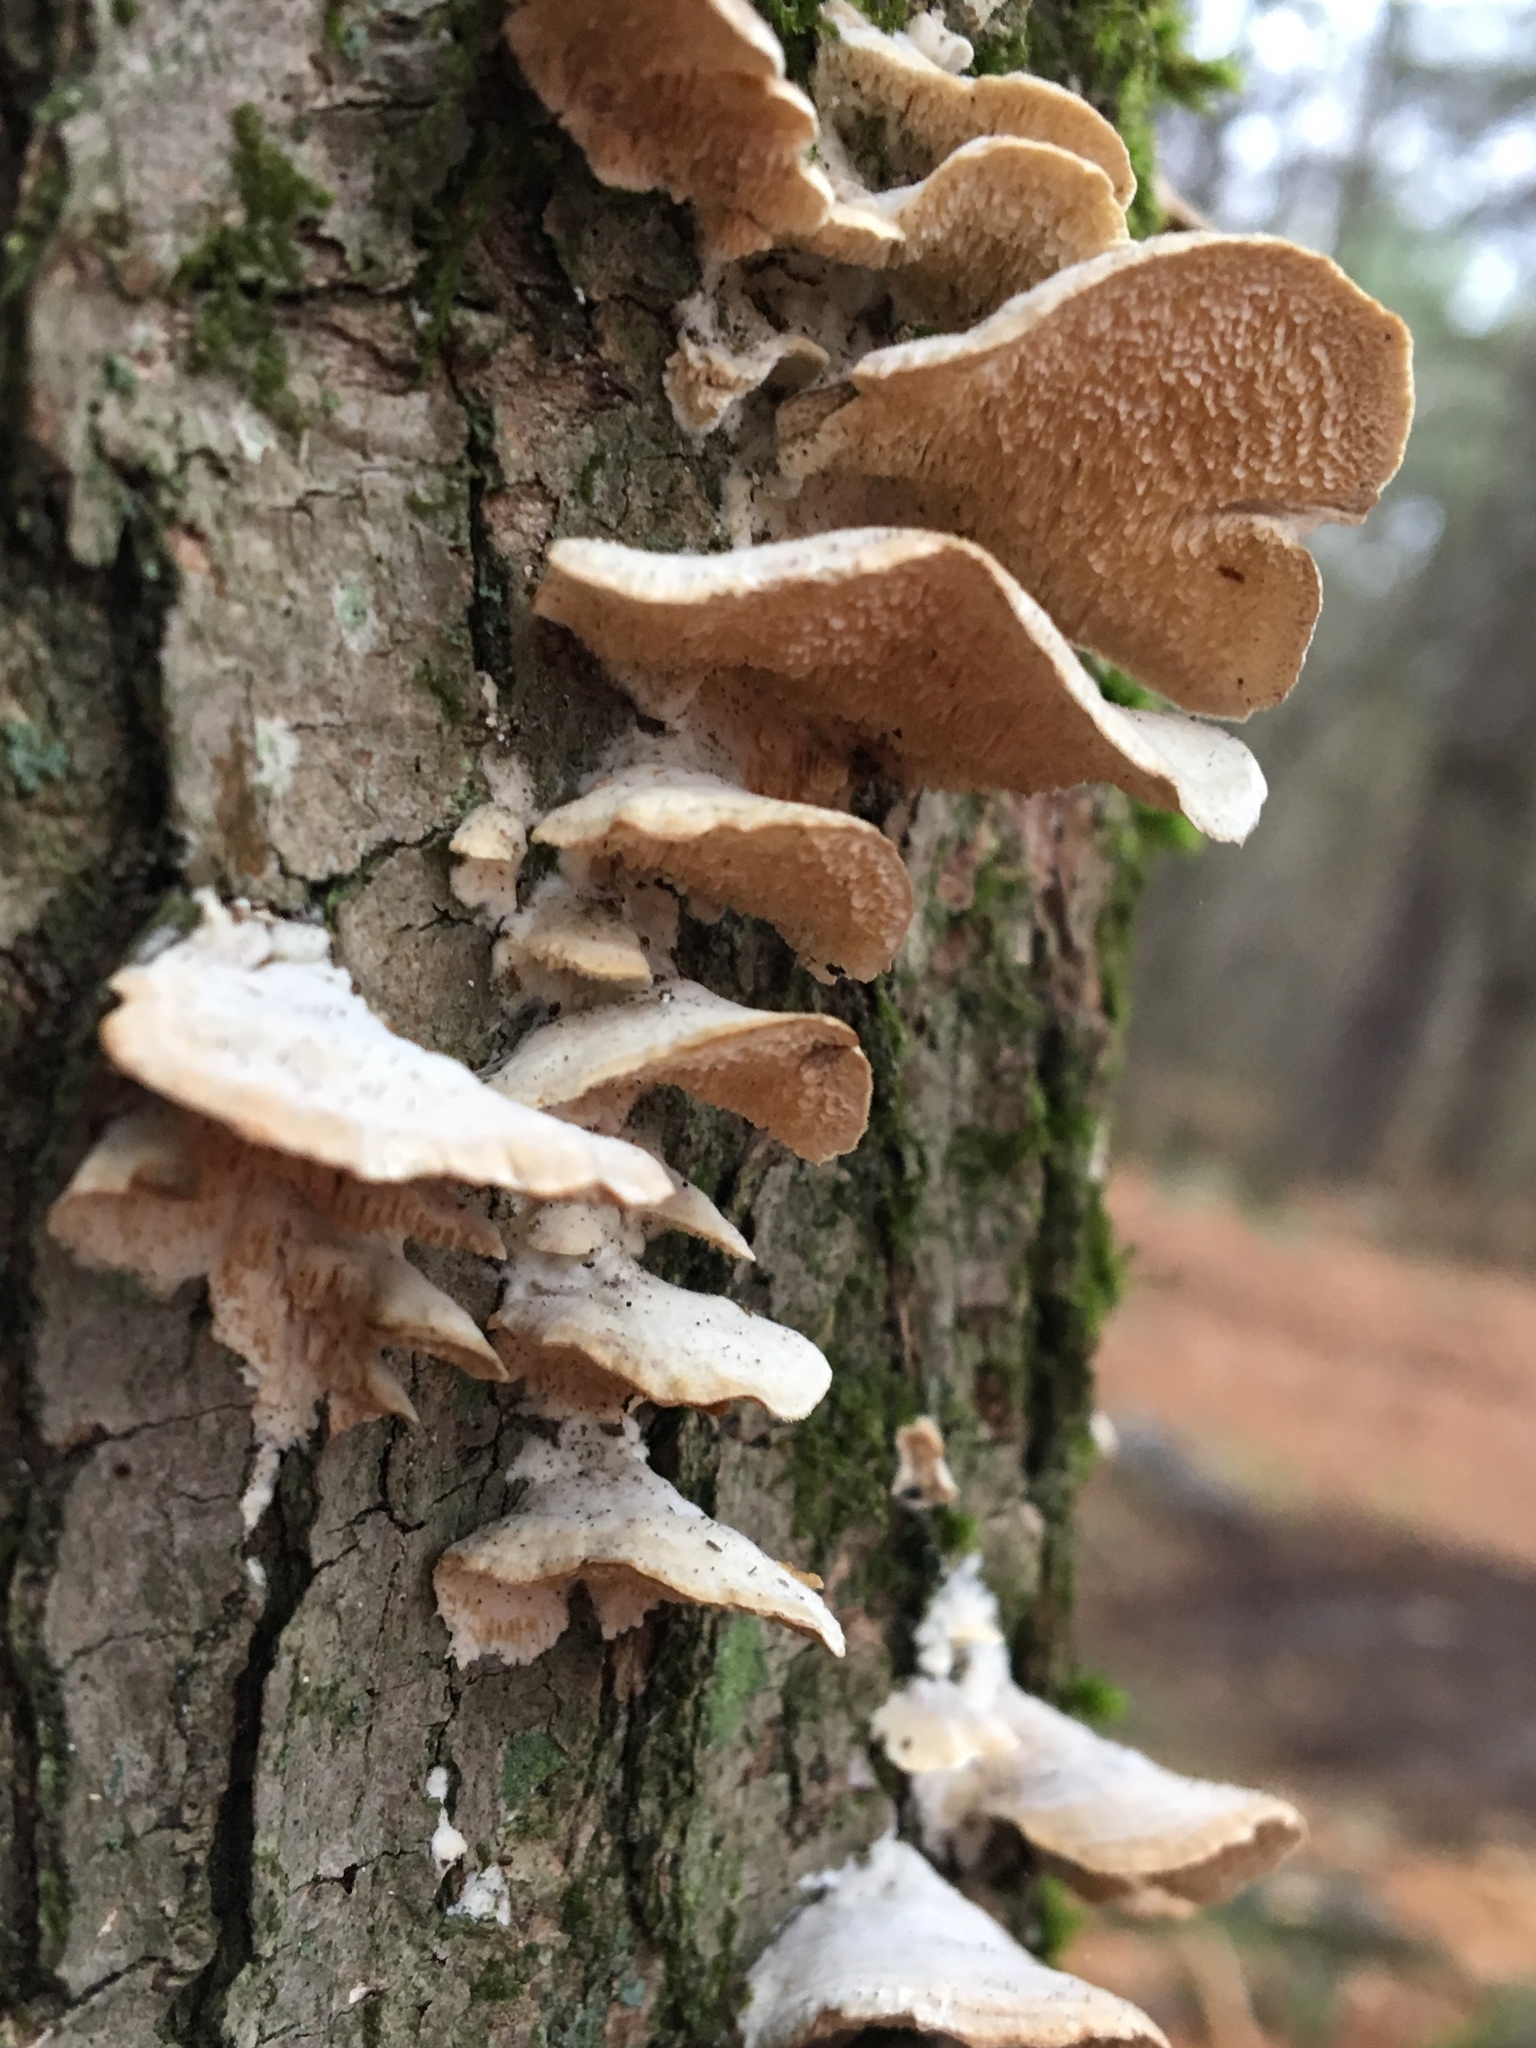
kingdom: Fungi
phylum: Basidiomycota
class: Agaricomycetes
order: Hymenochaetales
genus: Trichaptum
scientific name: Trichaptum biforme
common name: Violet-toothed polypore
